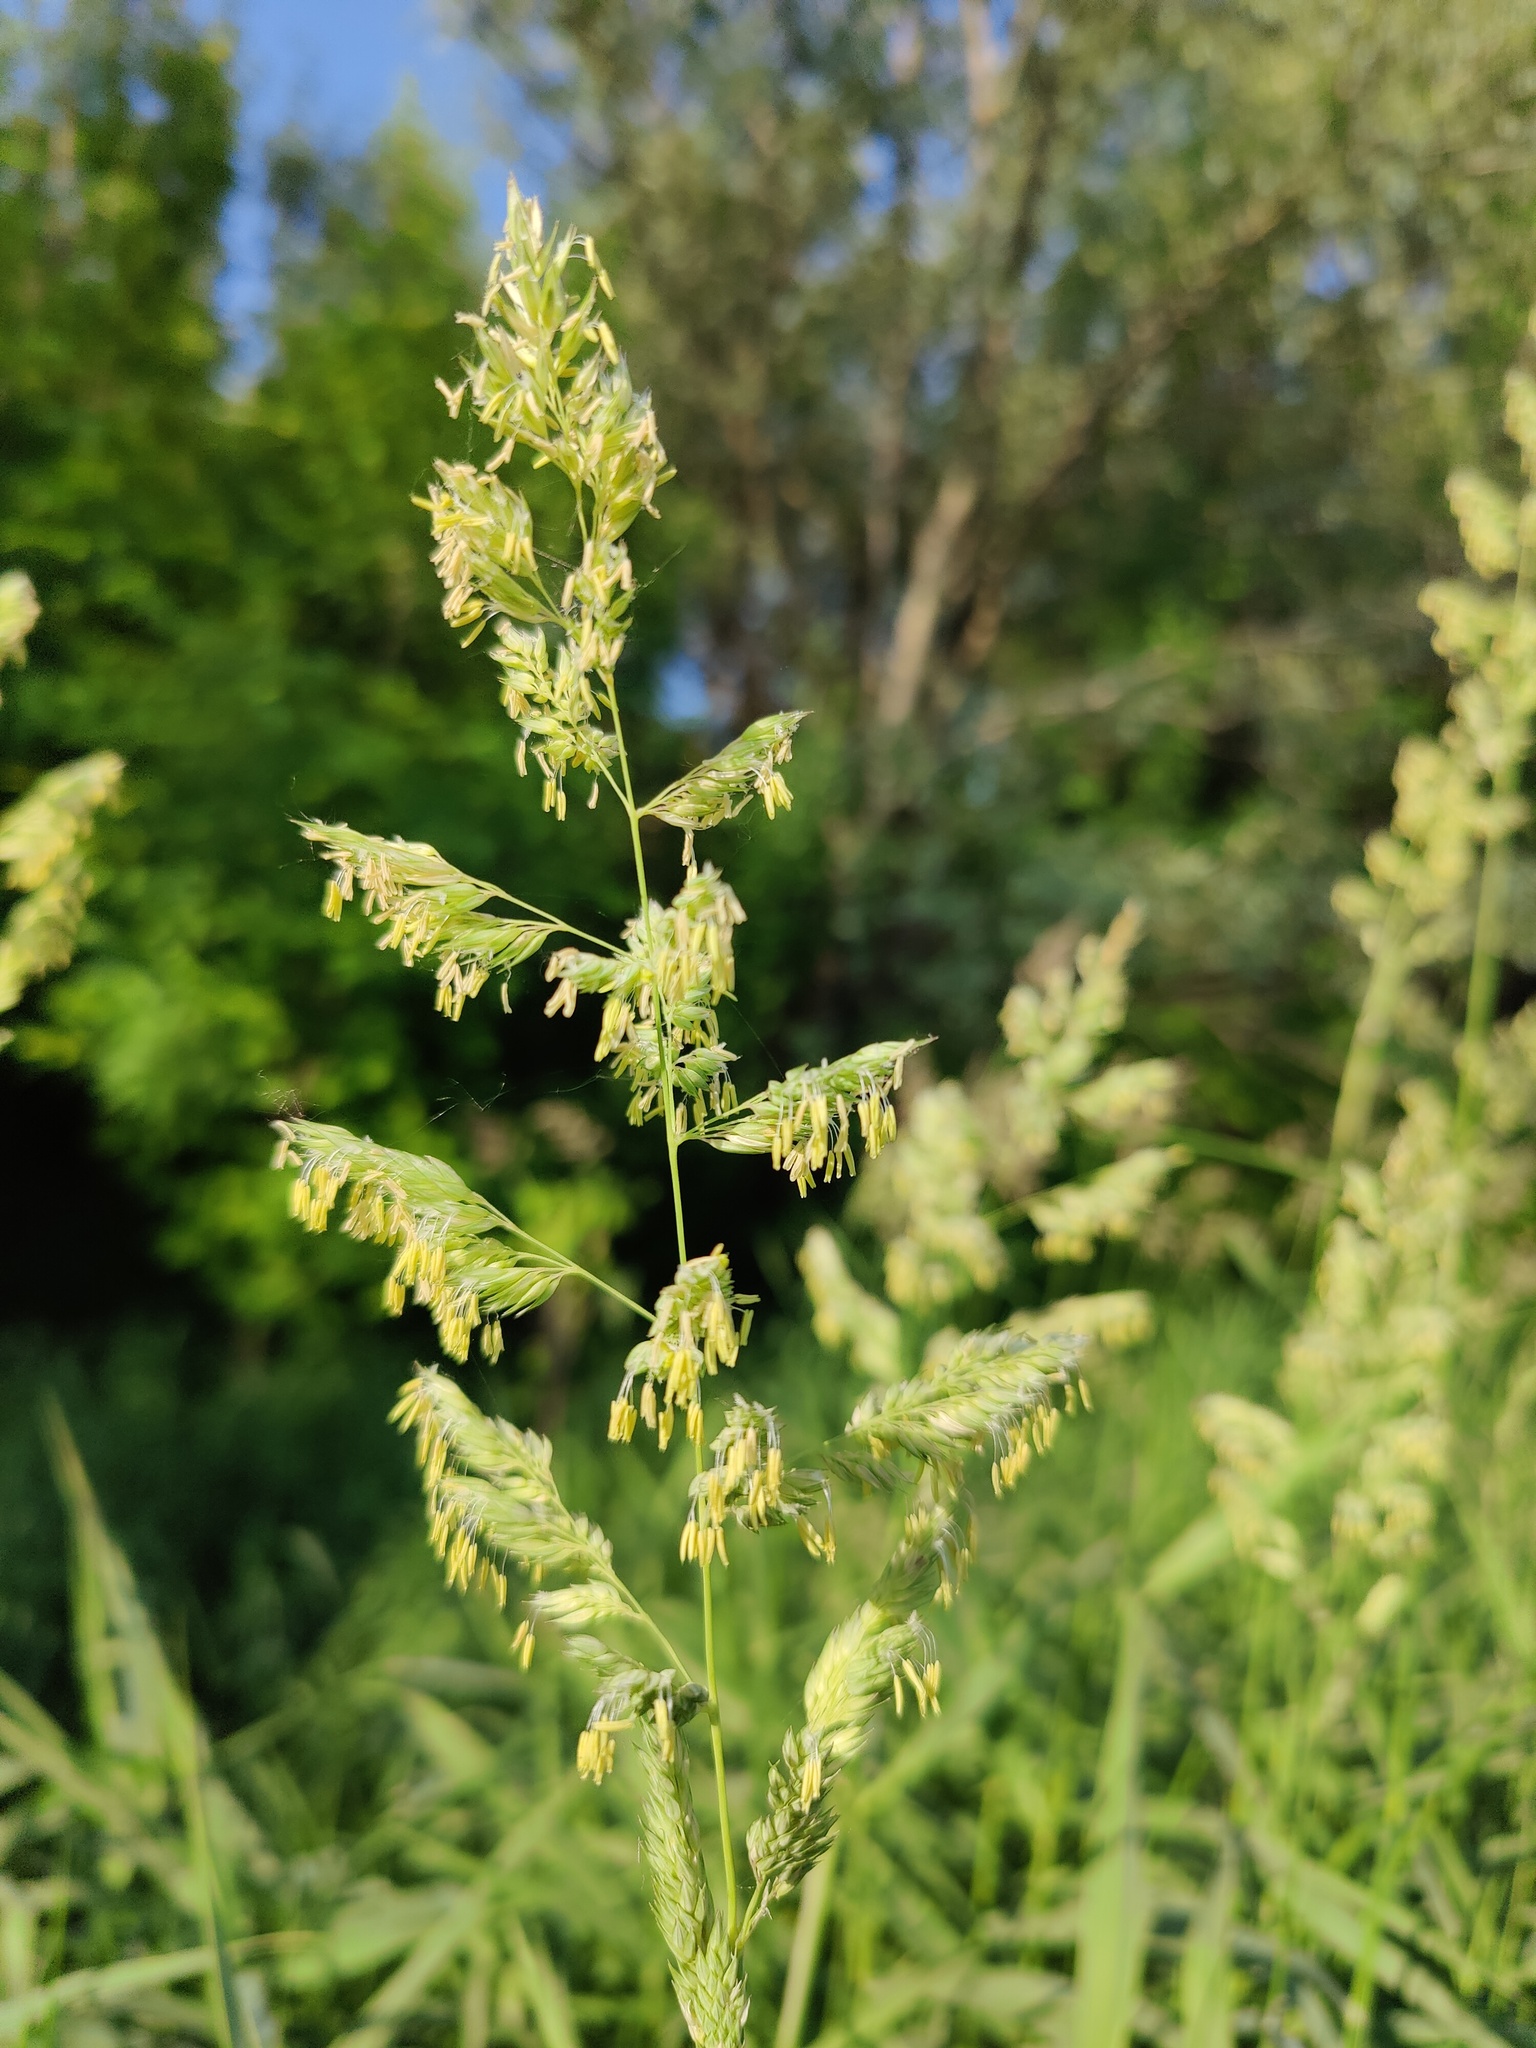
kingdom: Plantae
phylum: Tracheophyta
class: Liliopsida
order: Poales
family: Poaceae
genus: Dactylis
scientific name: Dactylis glomerata
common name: Orchardgrass
